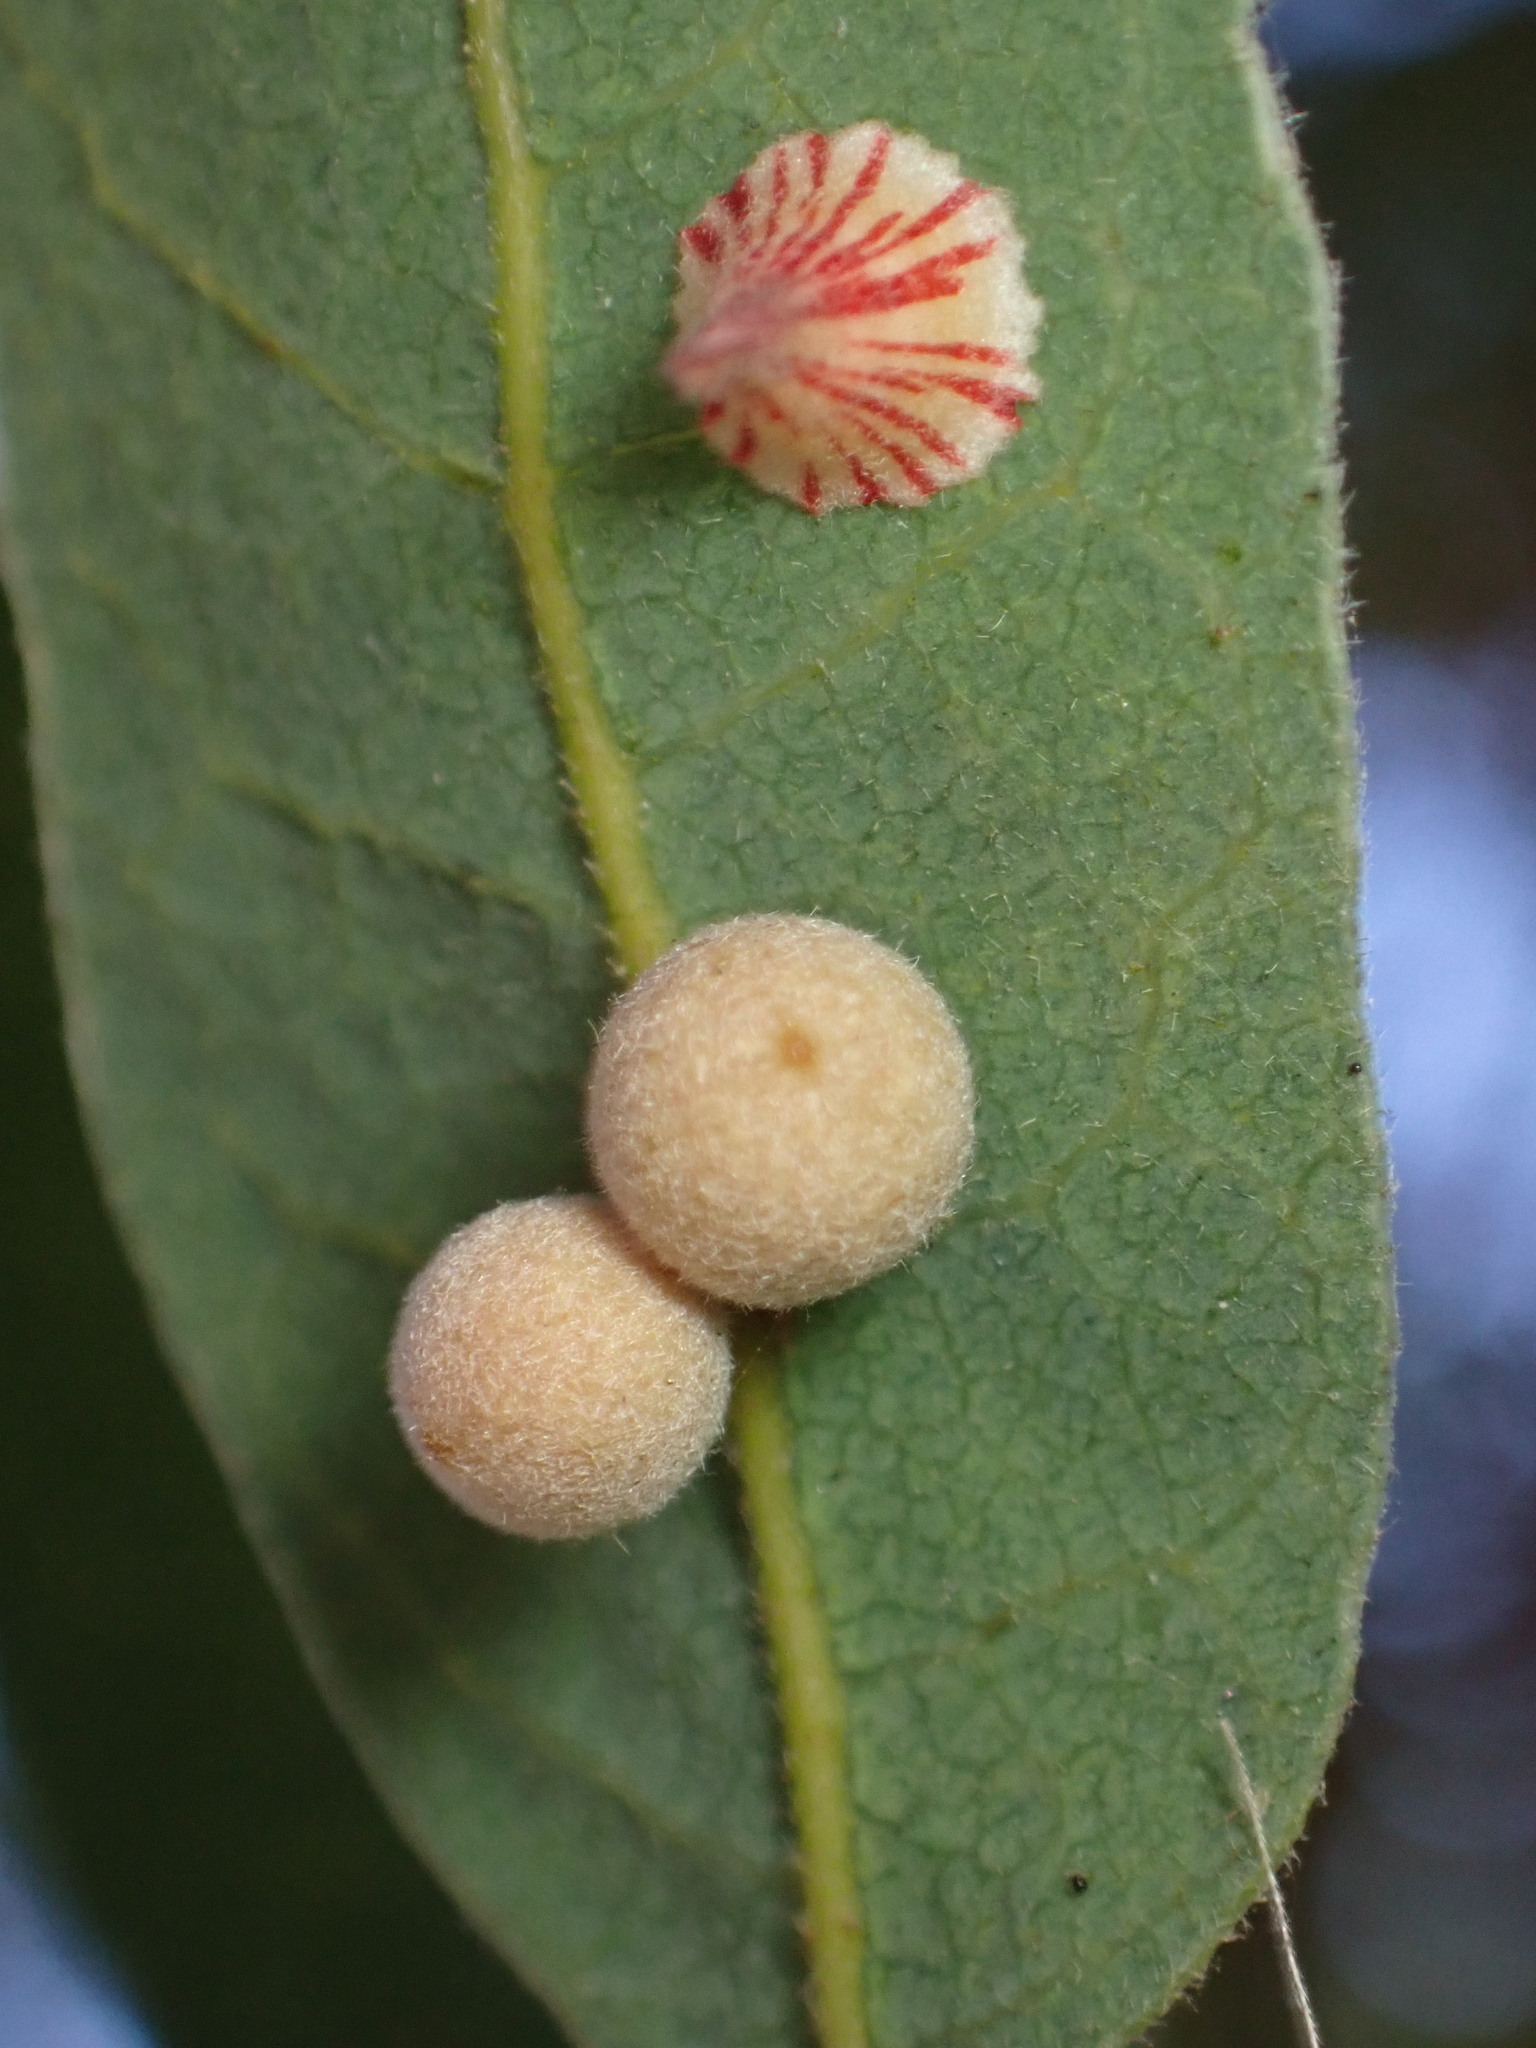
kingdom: Animalia
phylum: Arthropoda
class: Insecta
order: Hymenoptera
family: Cynipidae
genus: Andricus
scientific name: Andricus
